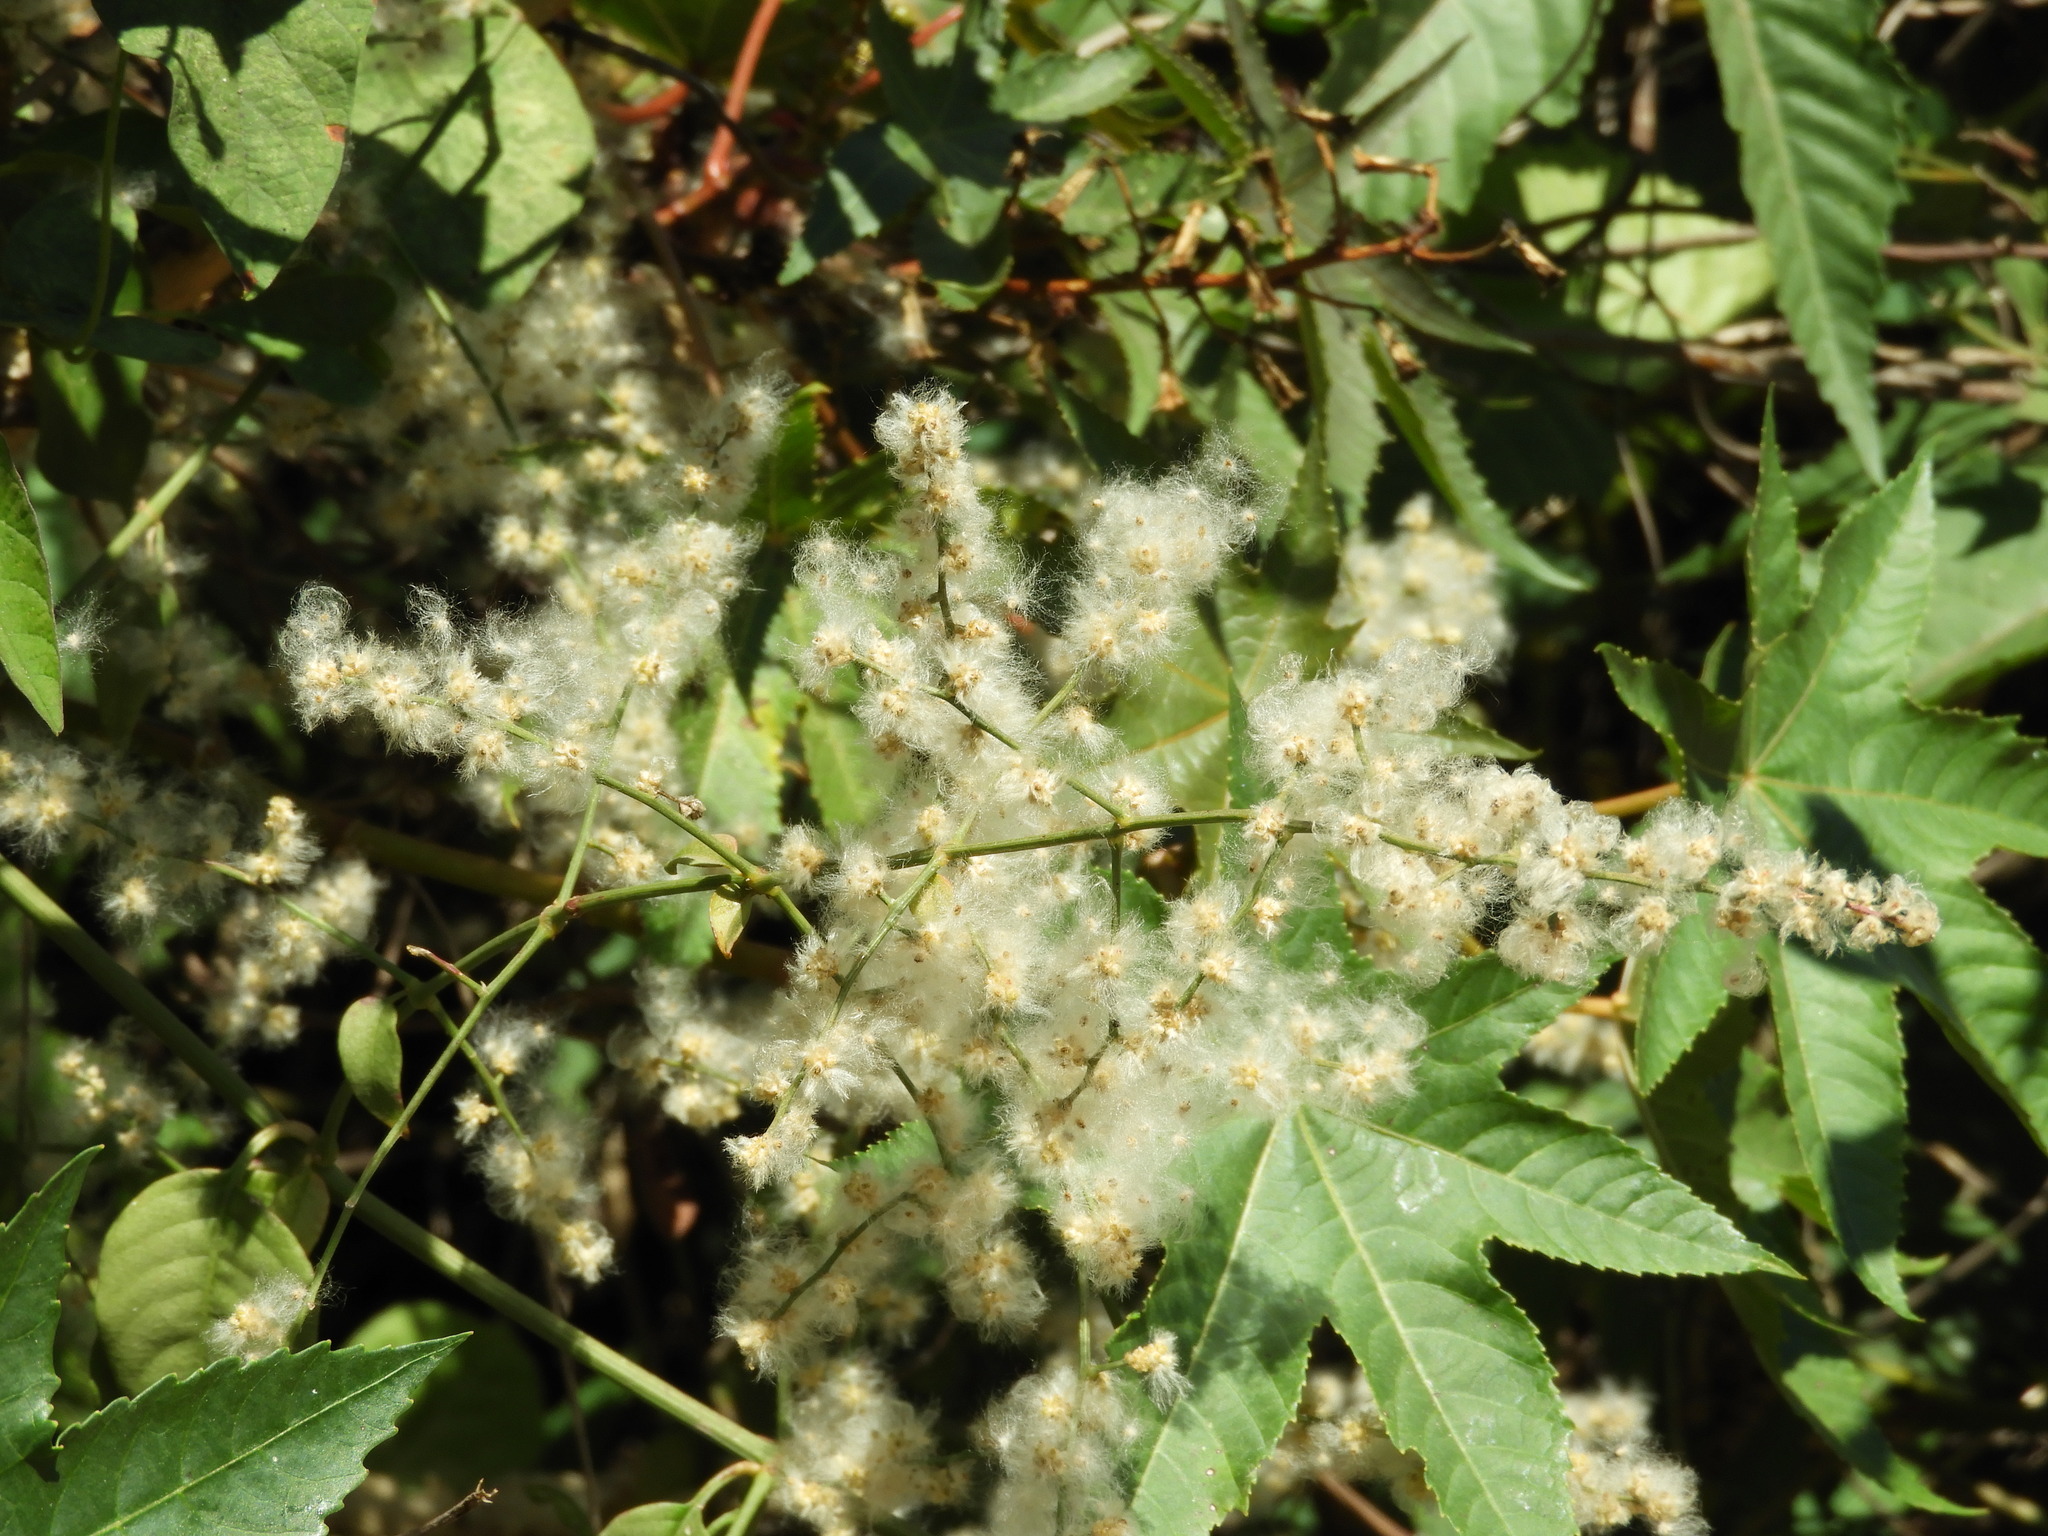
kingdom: Plantae
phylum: Tracheophyta
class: Magnoliopsida
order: Caryophyllales
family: Amaranthaceae
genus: Iresine
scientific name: Iresine diffusa
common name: Juba's-bush
